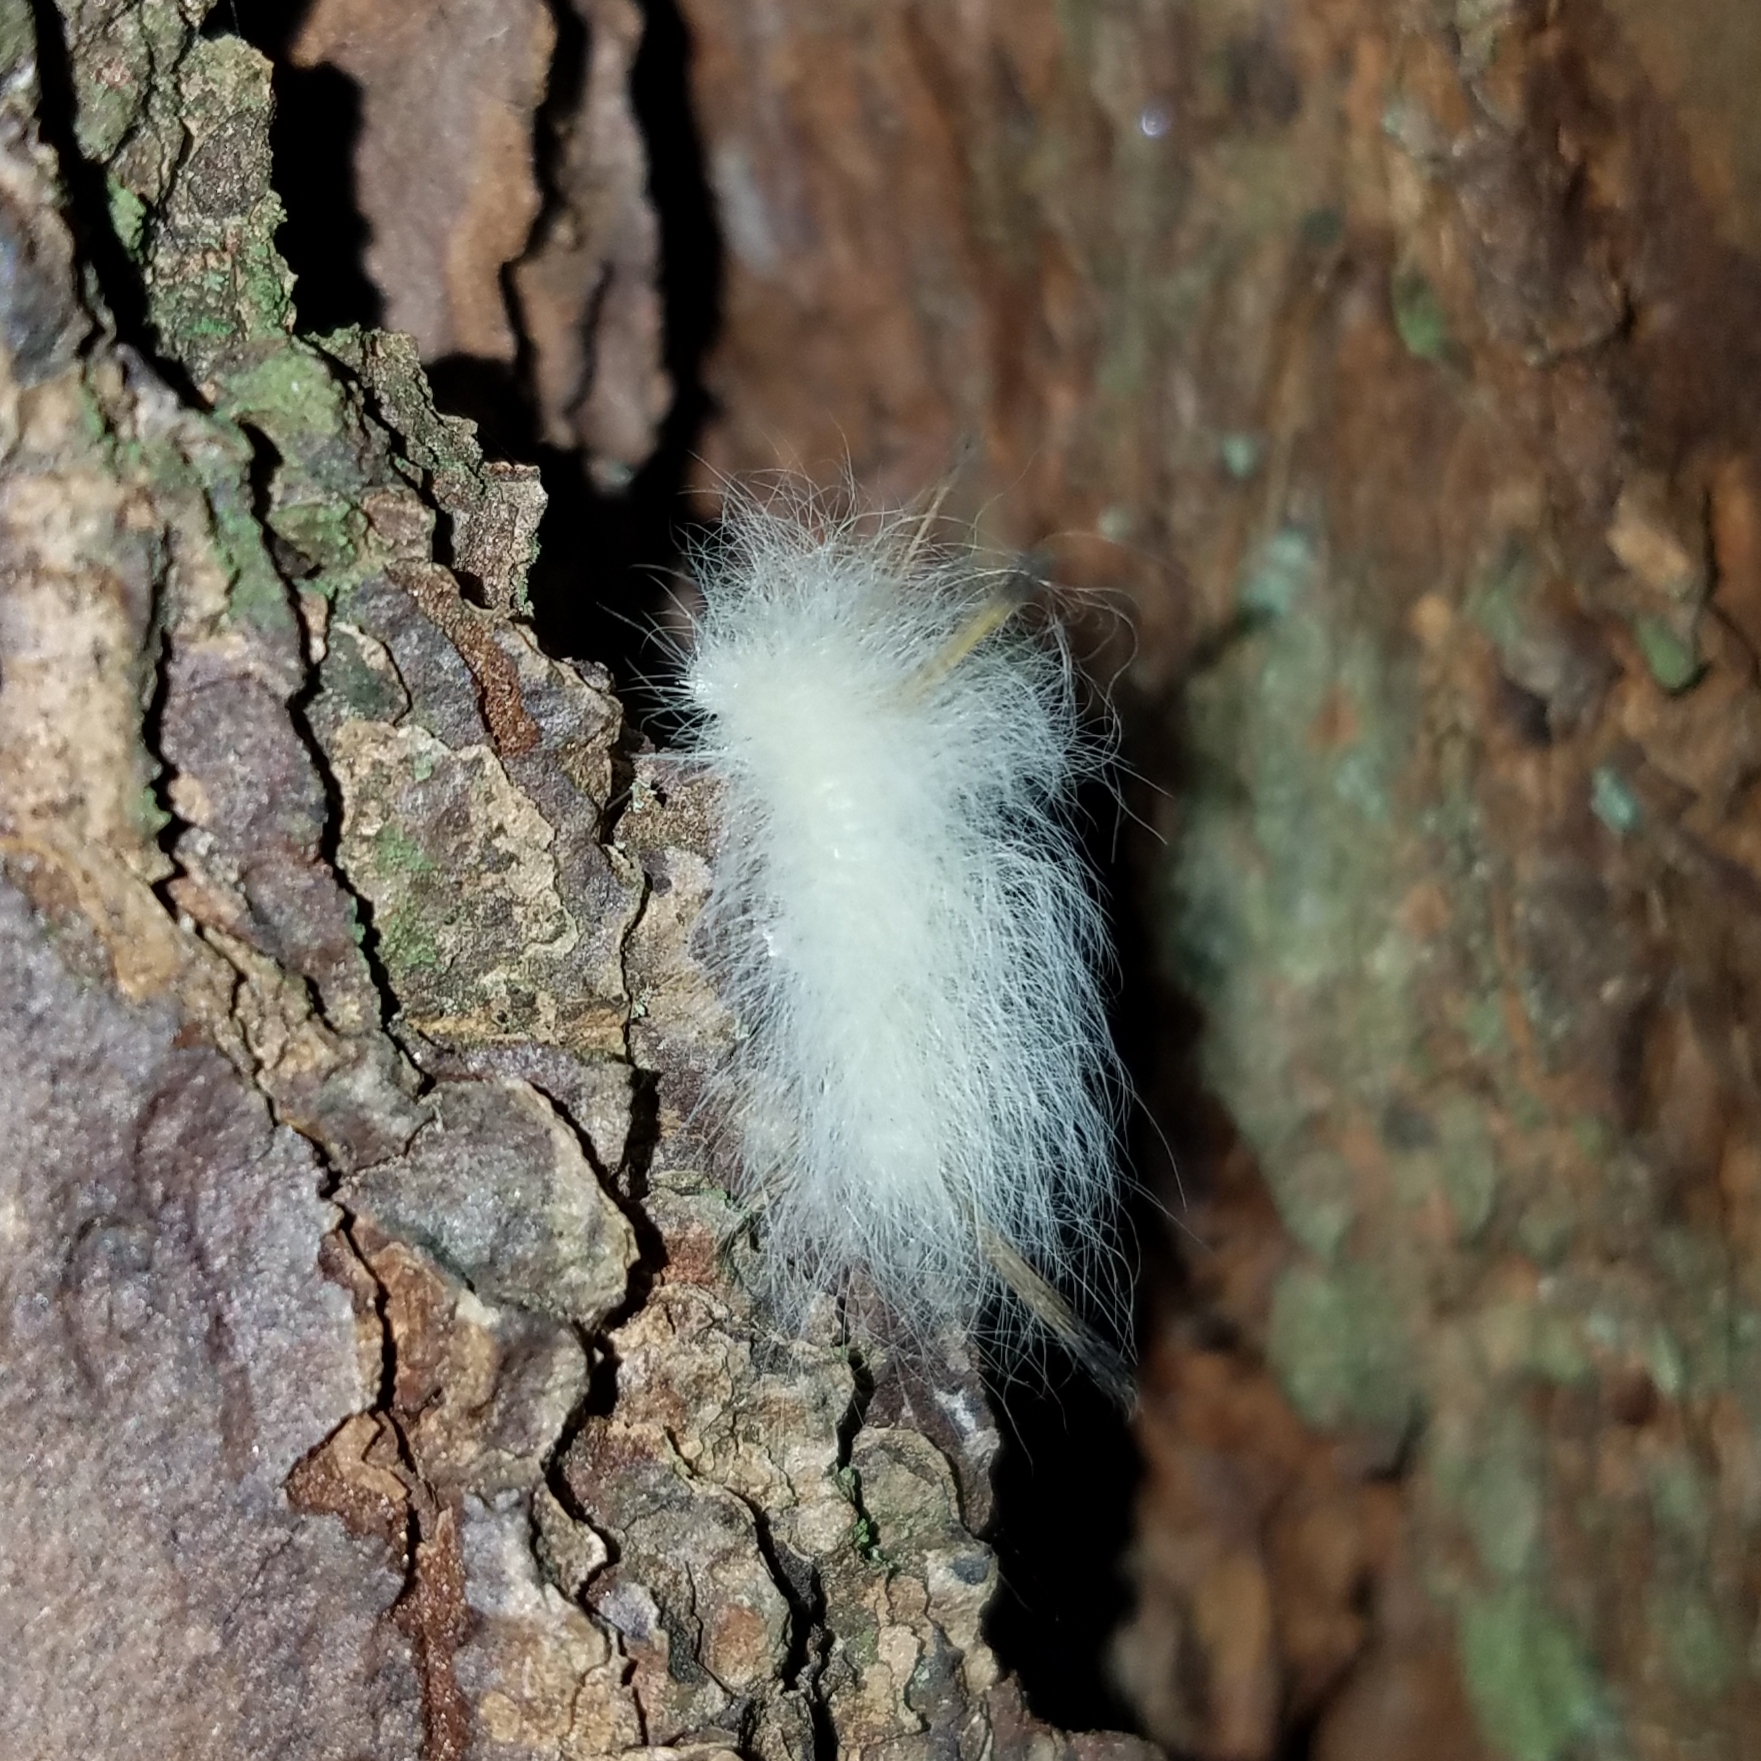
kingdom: Animalia
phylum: Arthropoda
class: Insecta
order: Lepidoptera
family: Apatelodidae
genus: Hygrochroa
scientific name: Hygrochroa Apatelodes torrefacta
